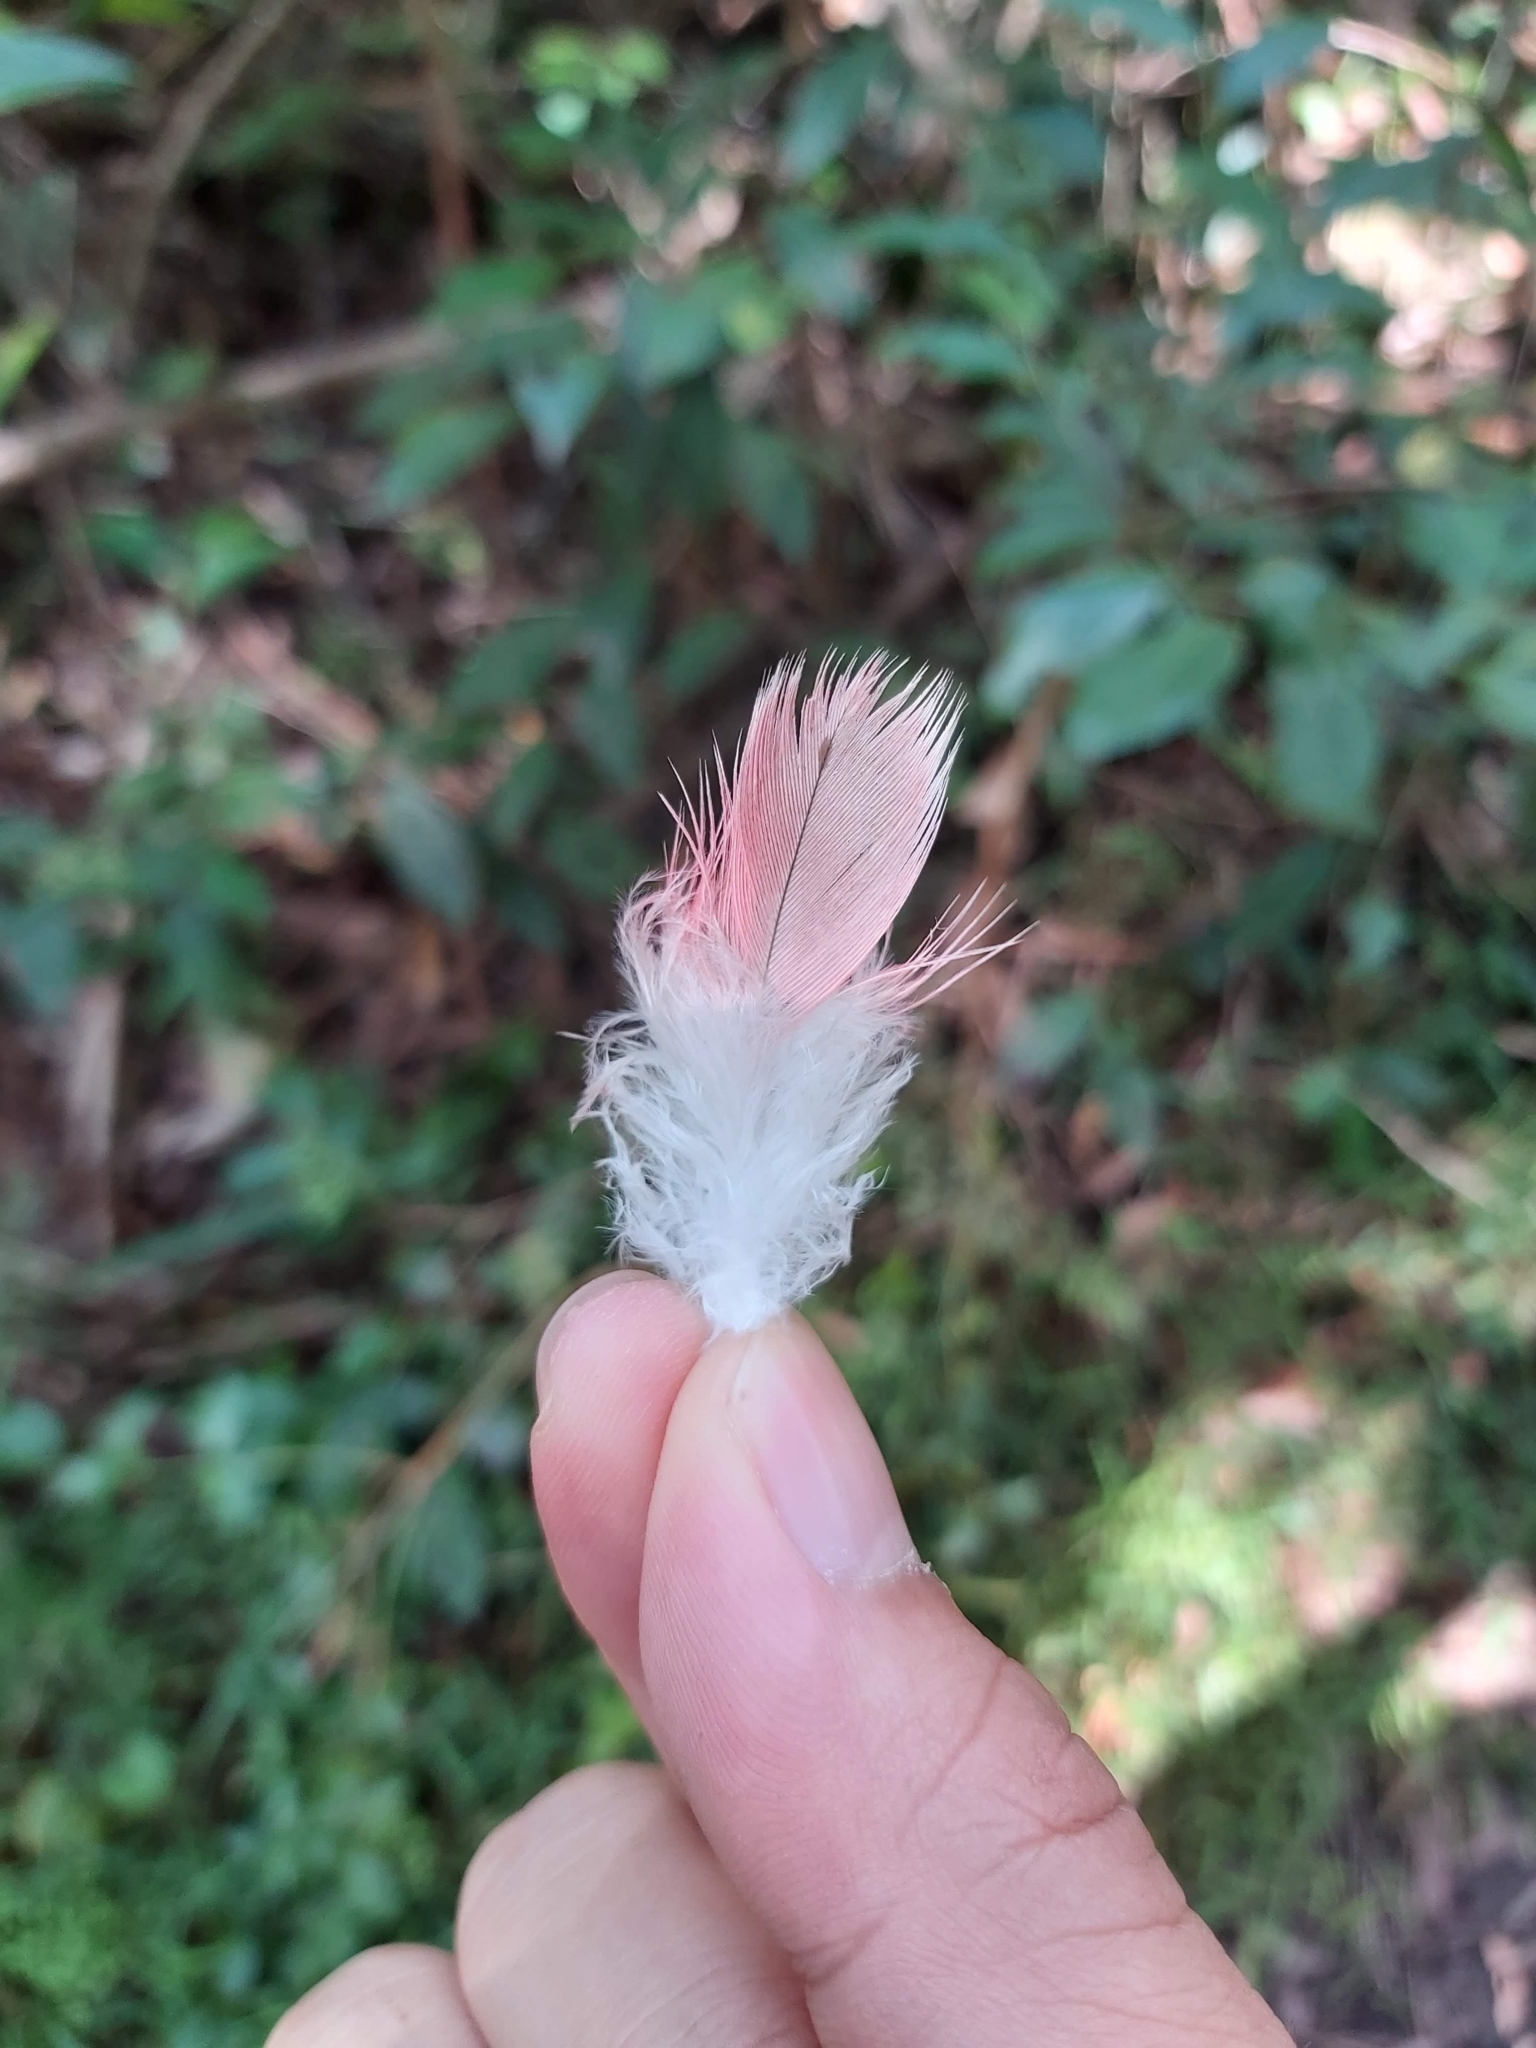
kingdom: Animalia
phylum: Chordata
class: Aves
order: Psittaciformes
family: Psittacidae
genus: Eolophus
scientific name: Eolophus roseicapilla
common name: Galah
